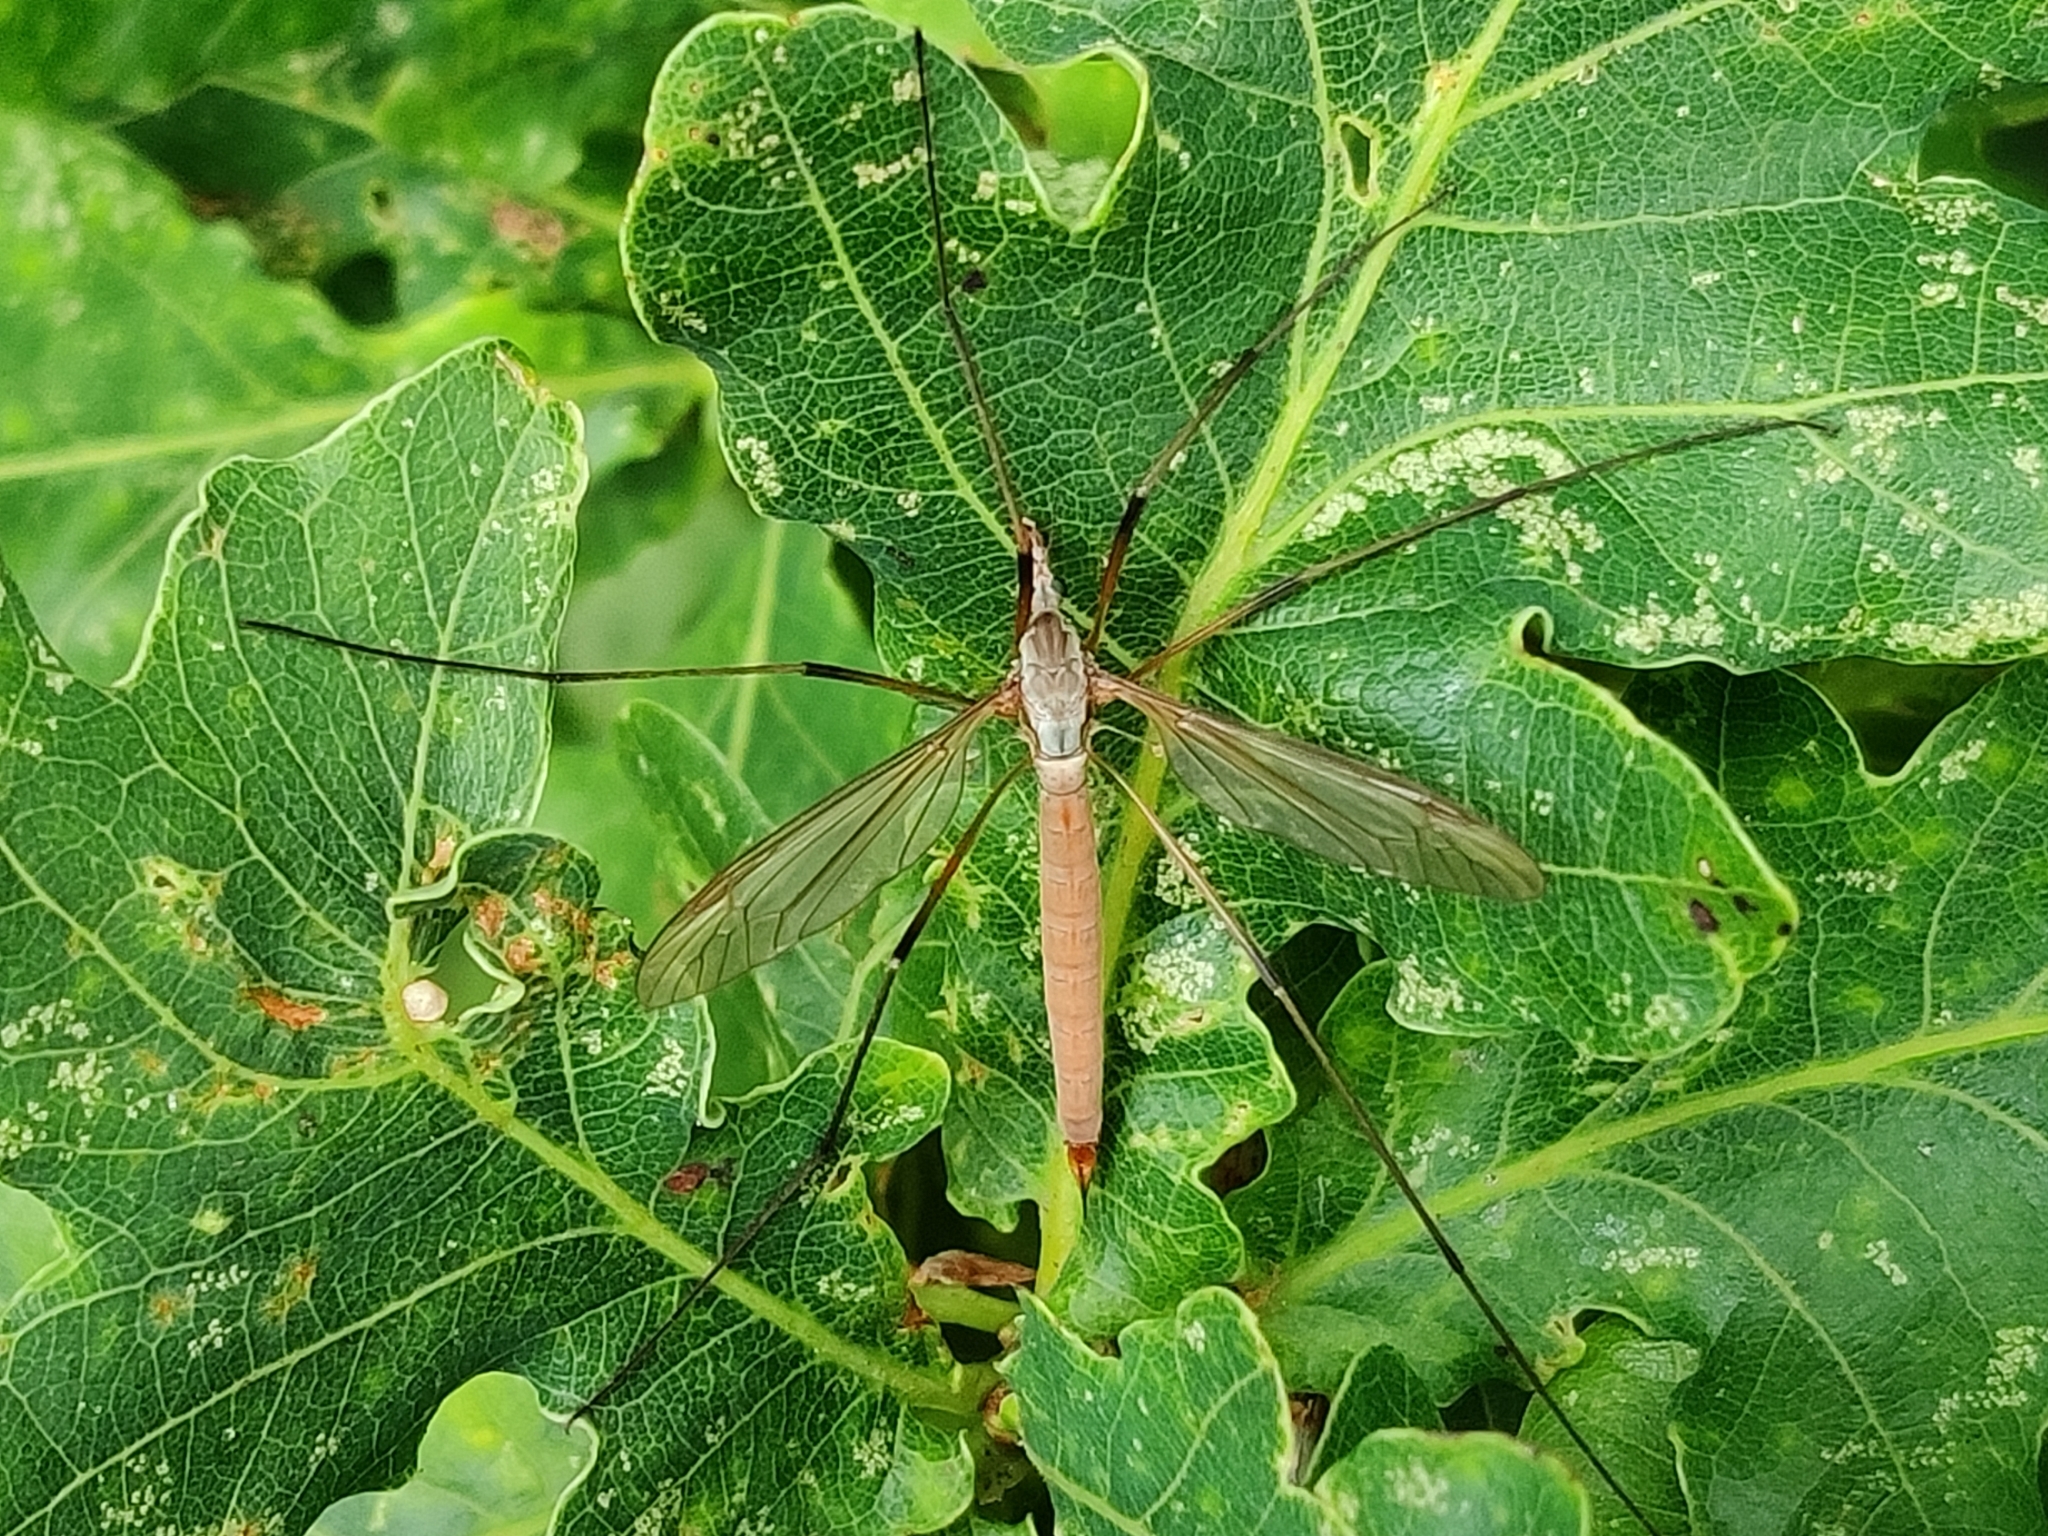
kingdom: Animalia
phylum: Arthropoda
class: Insecta
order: Diptera
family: Tipulidae
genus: Tipula
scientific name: Tipula paludosa
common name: European cranefly
